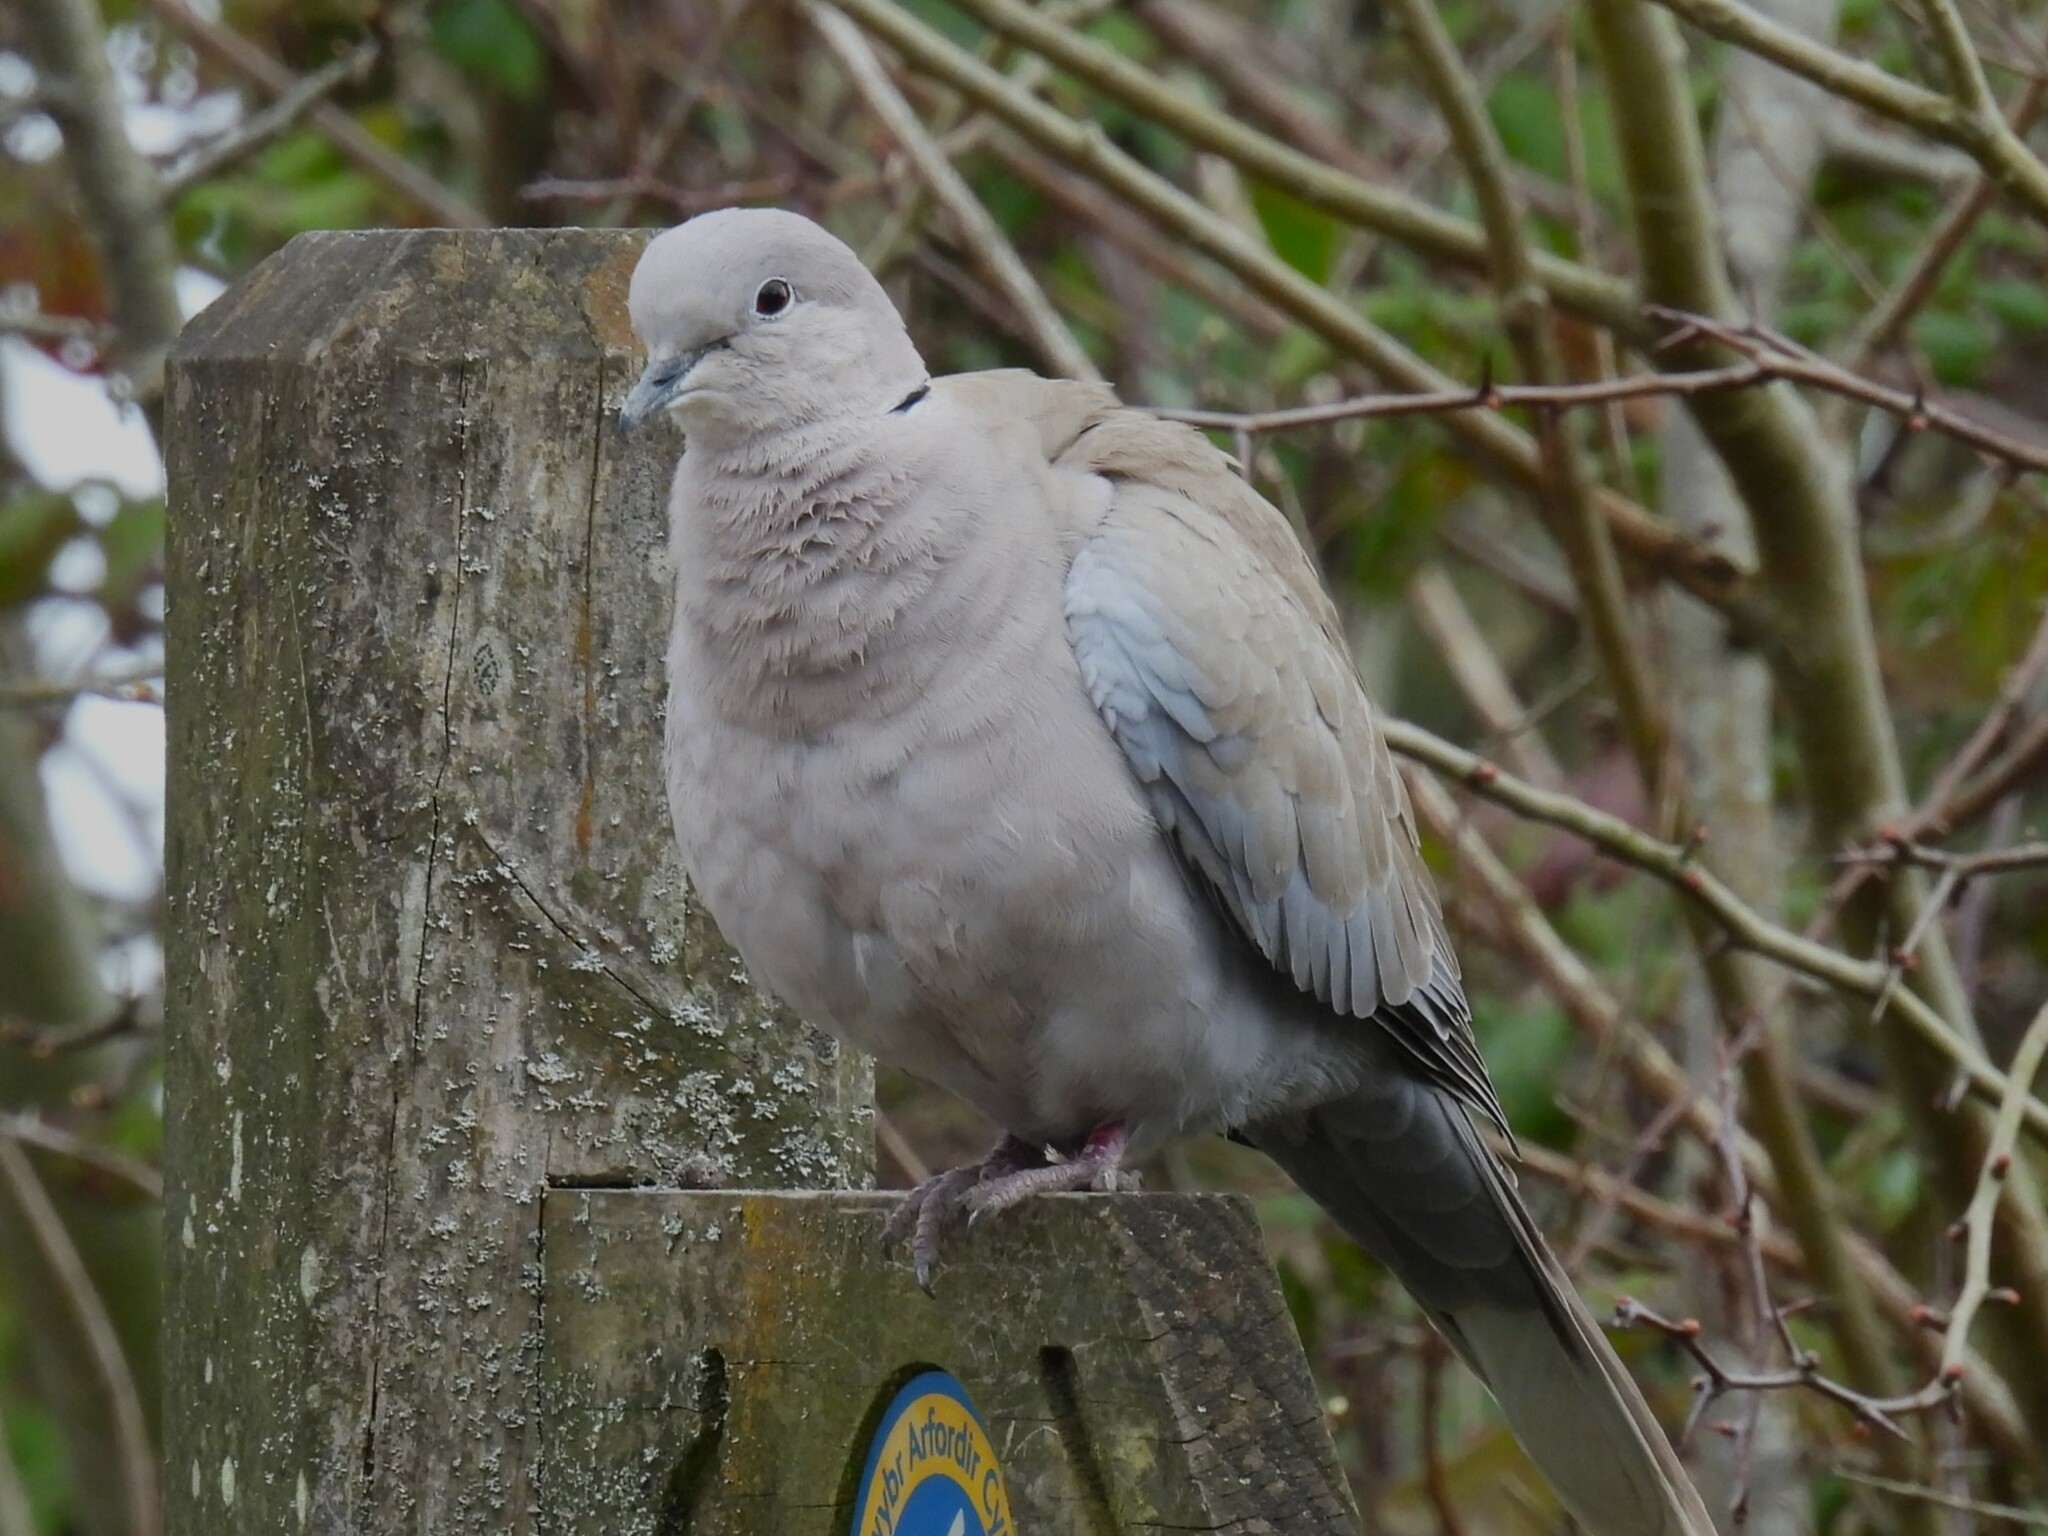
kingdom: Animalia
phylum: Chordata
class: Aves
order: Columbiformes
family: Columbidae
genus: Streptopelia
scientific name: Streptopelia decaocto
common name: Eurasian collared dove
